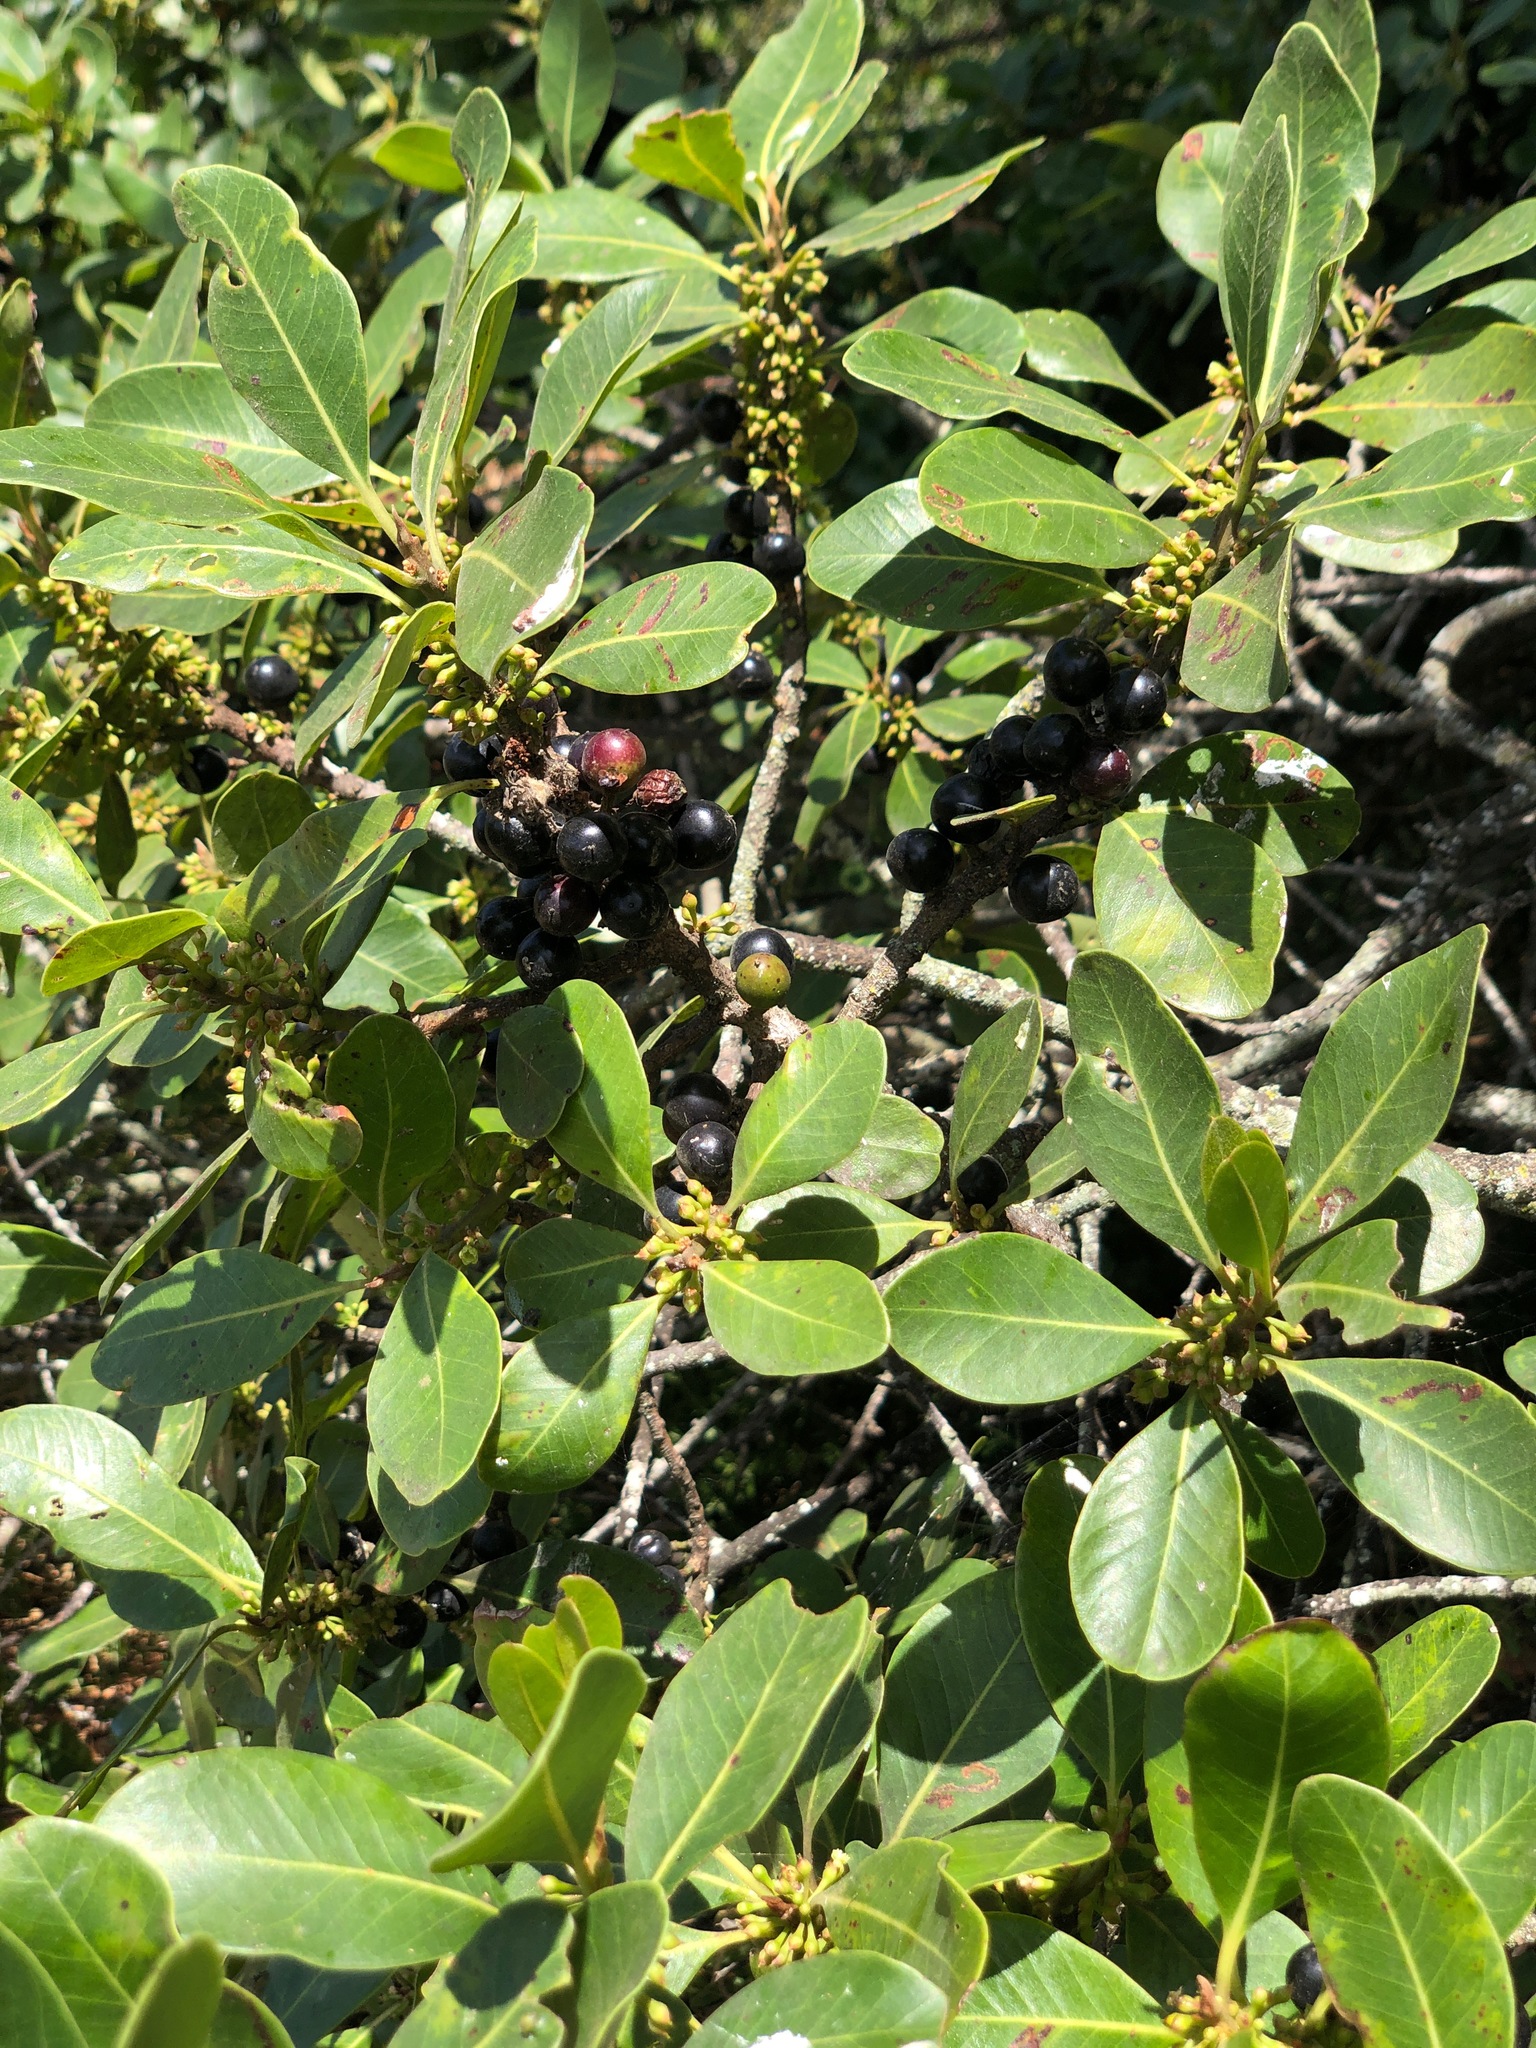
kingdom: Plantae
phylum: Tracheophyta
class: Magnoliopsida
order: Ericales
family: Sapotaceae
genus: Sideroxylon
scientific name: Sideroxylon inerme
